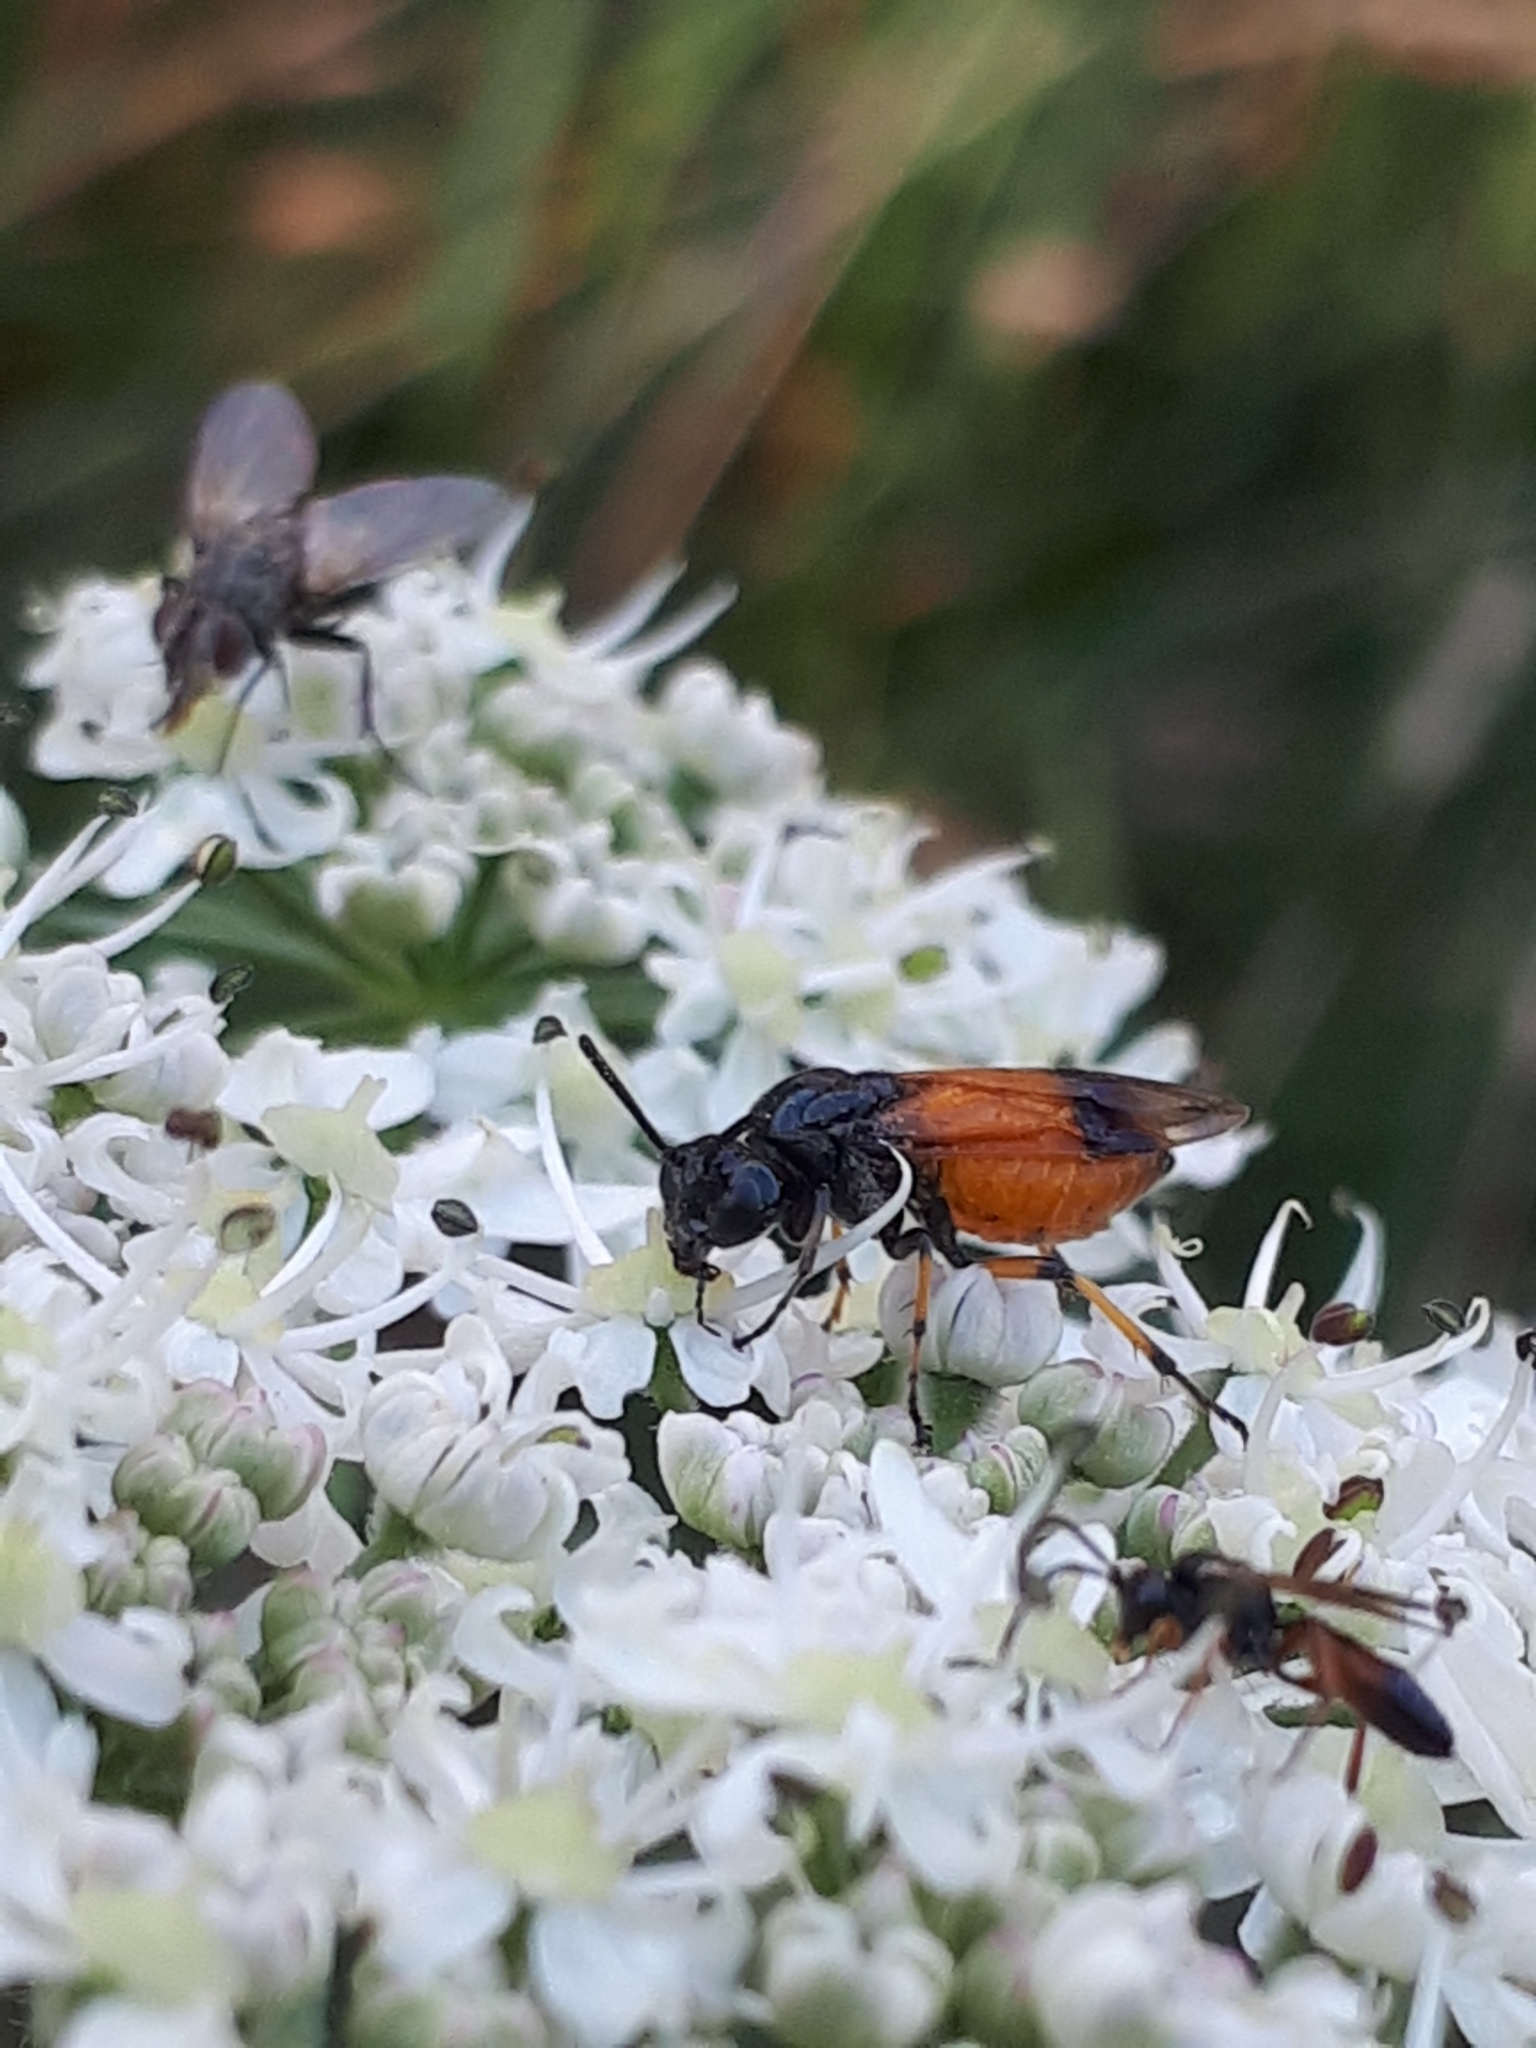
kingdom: Animalia
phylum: Arthropoda
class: Insecta
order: Hymenoptera
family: Argidae
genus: Arge
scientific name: Arge cyanocrocea
